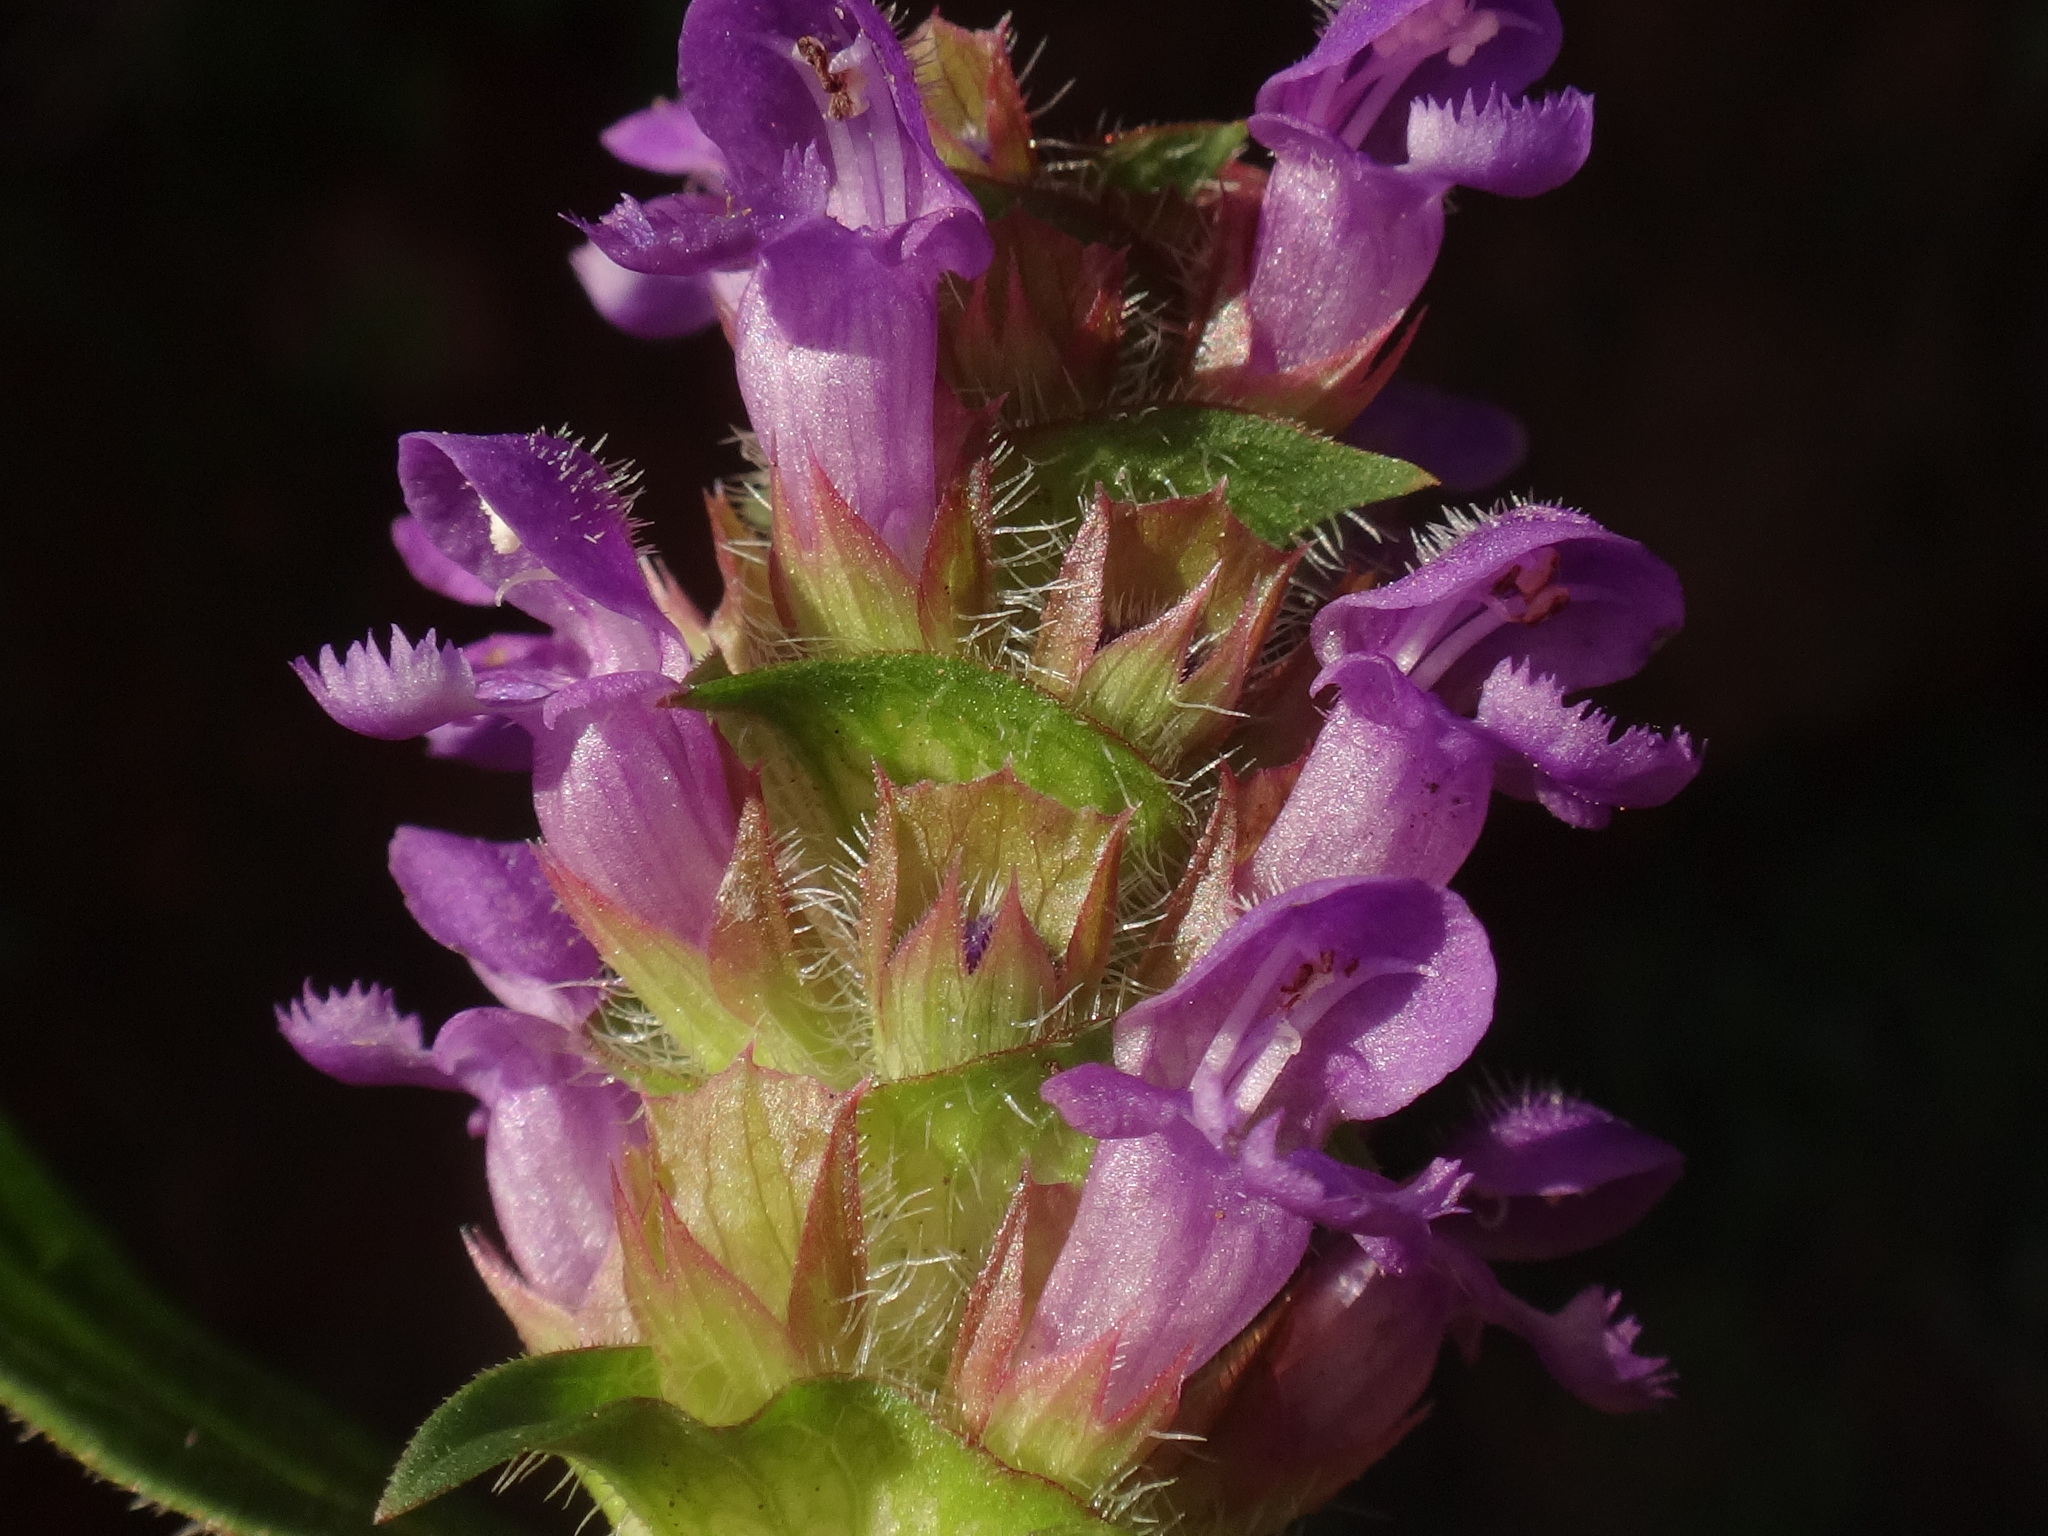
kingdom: Plantae
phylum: Tracheophyta
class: Magnoliopsida
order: Lamiales
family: Lamiaceae
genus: Prunella
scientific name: Prunella vulgaris
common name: Heal-all
